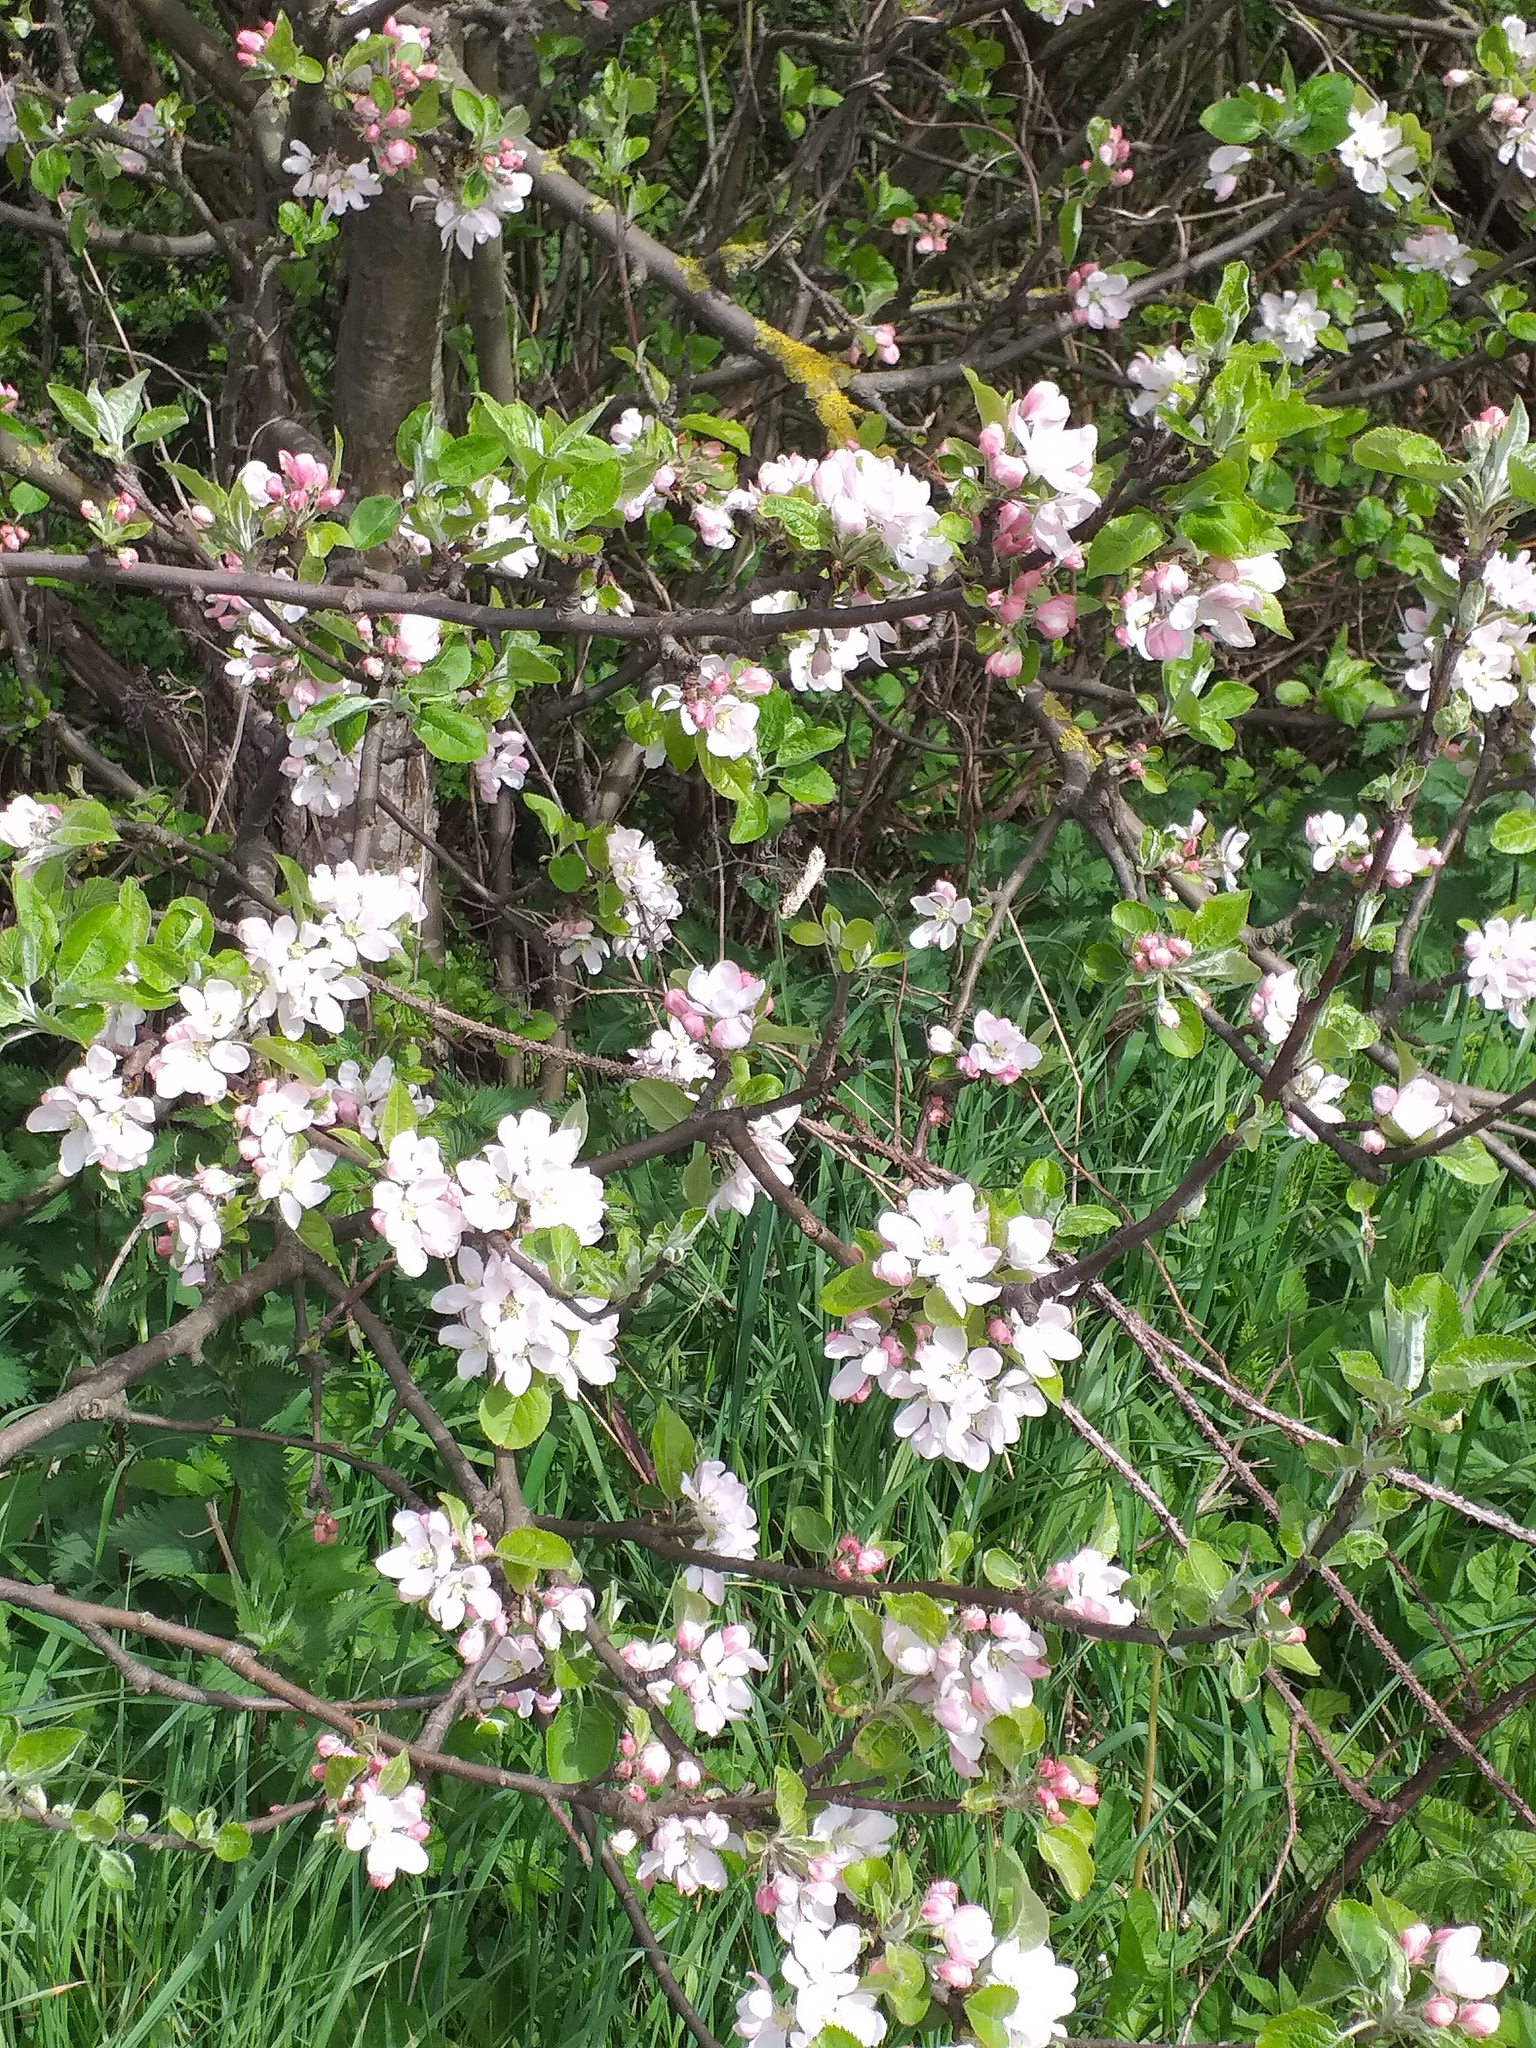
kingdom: Plantae
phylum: Tracheophyta
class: Magnoliopsida
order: Rosales
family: Rosaceae
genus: Malus
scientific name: Malus domestica
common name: Apple
